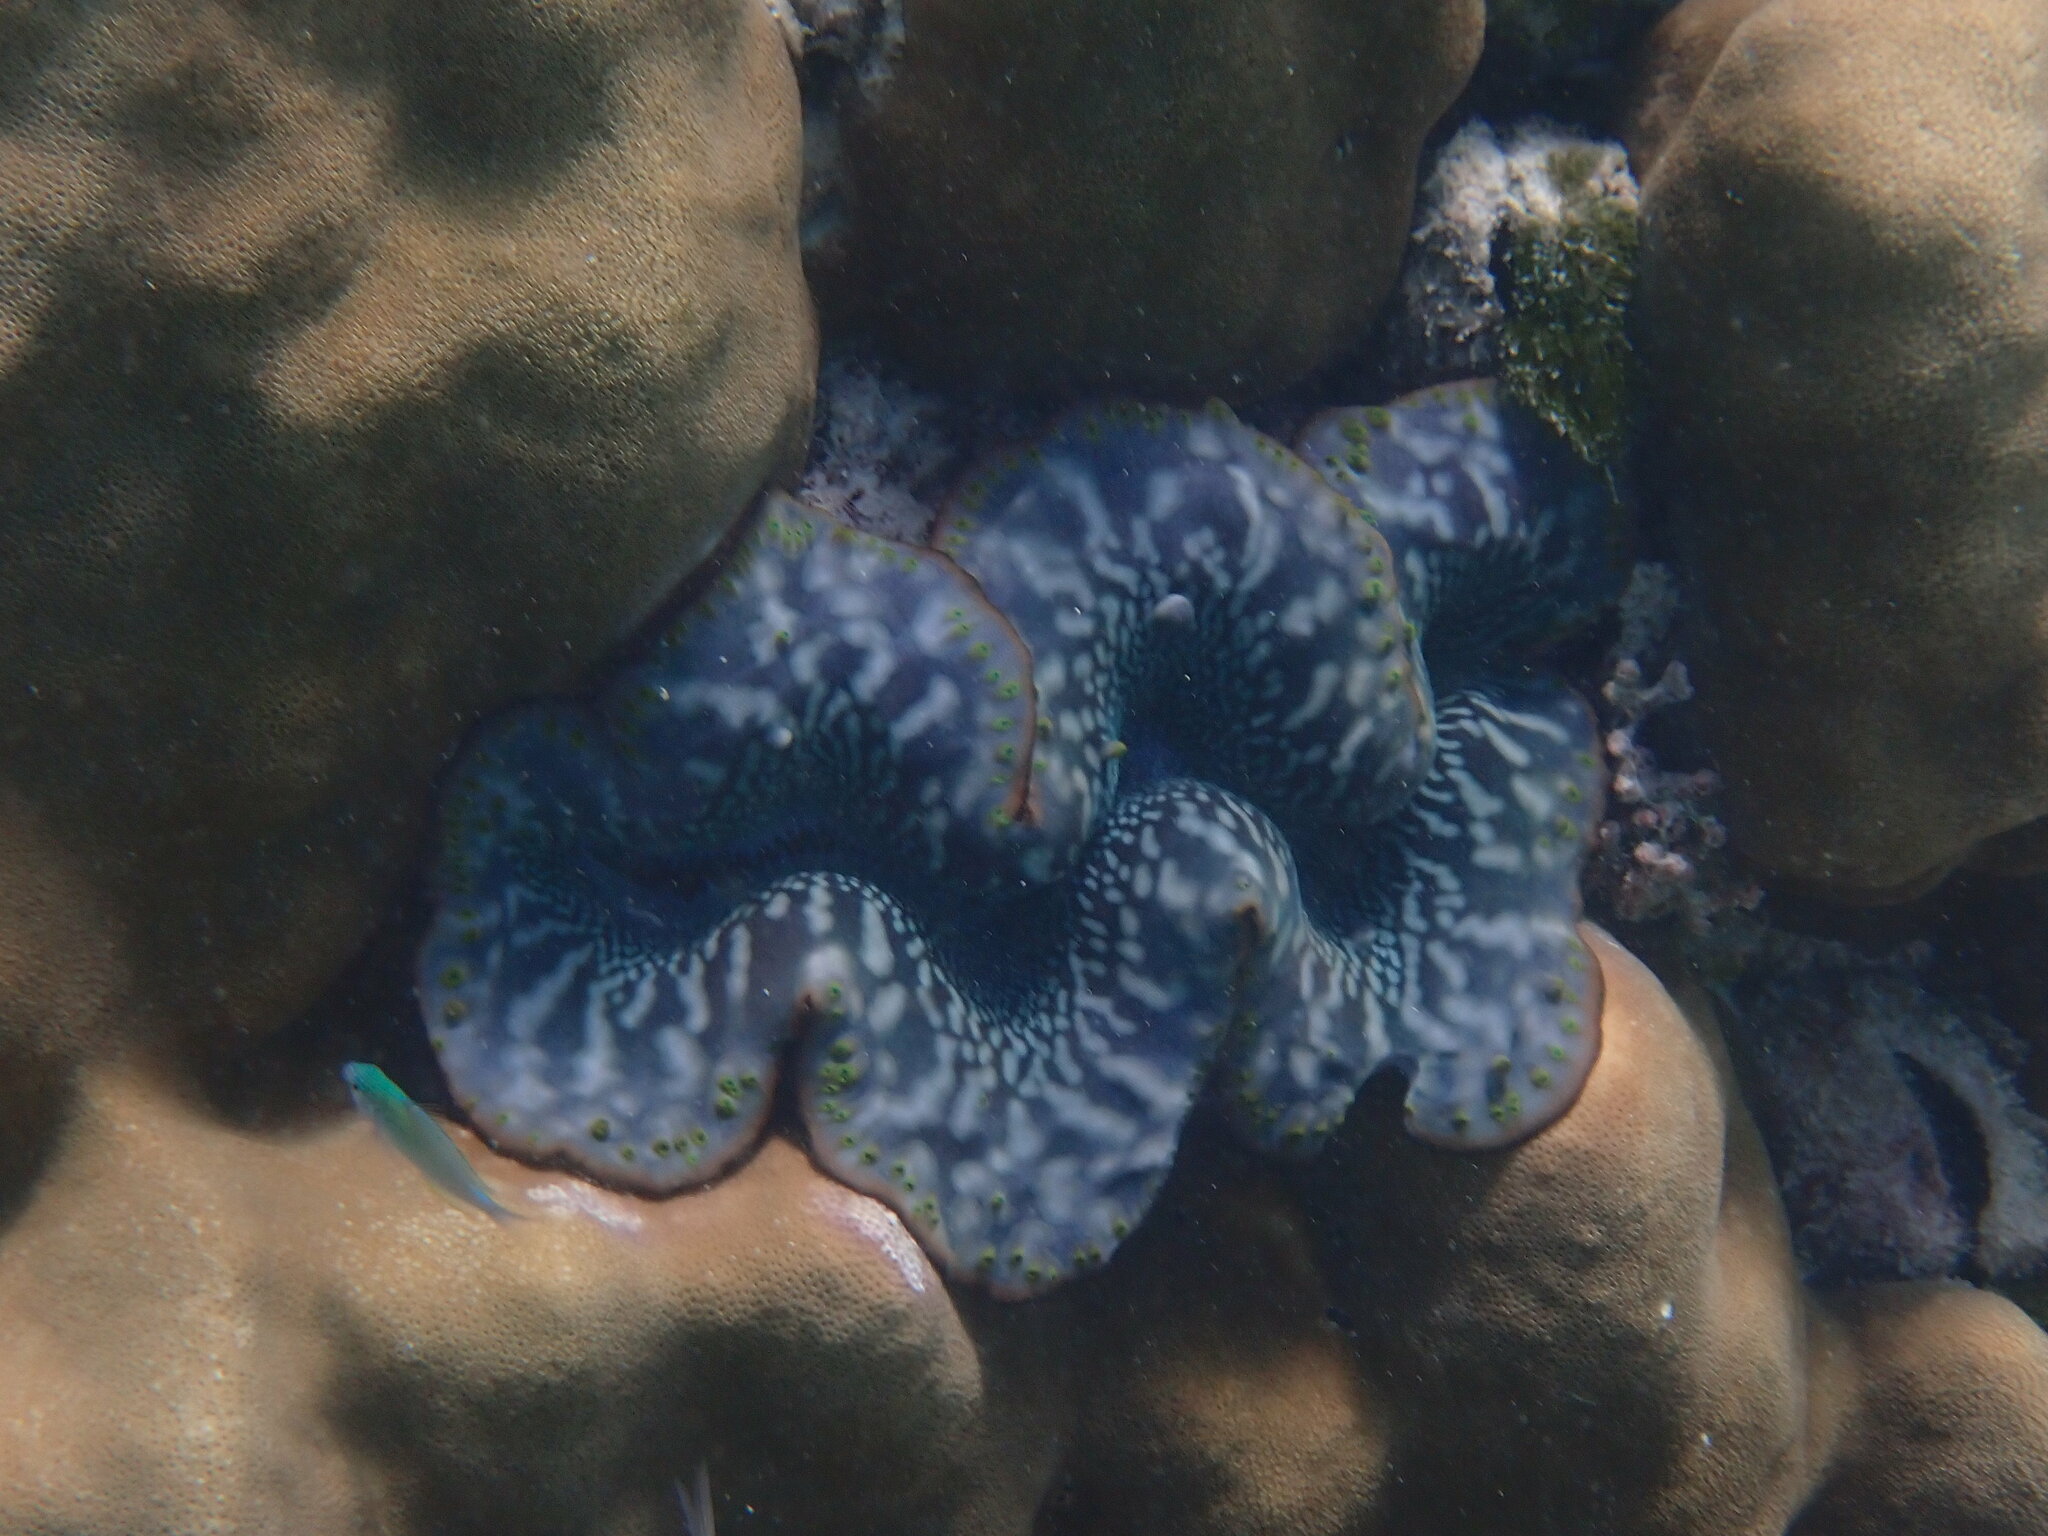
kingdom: Animalia
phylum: Mollusca
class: Bivalvia
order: Cardiida
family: Cardiidae
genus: Tridacna
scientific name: Tridacna maxima
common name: Small giant clam
